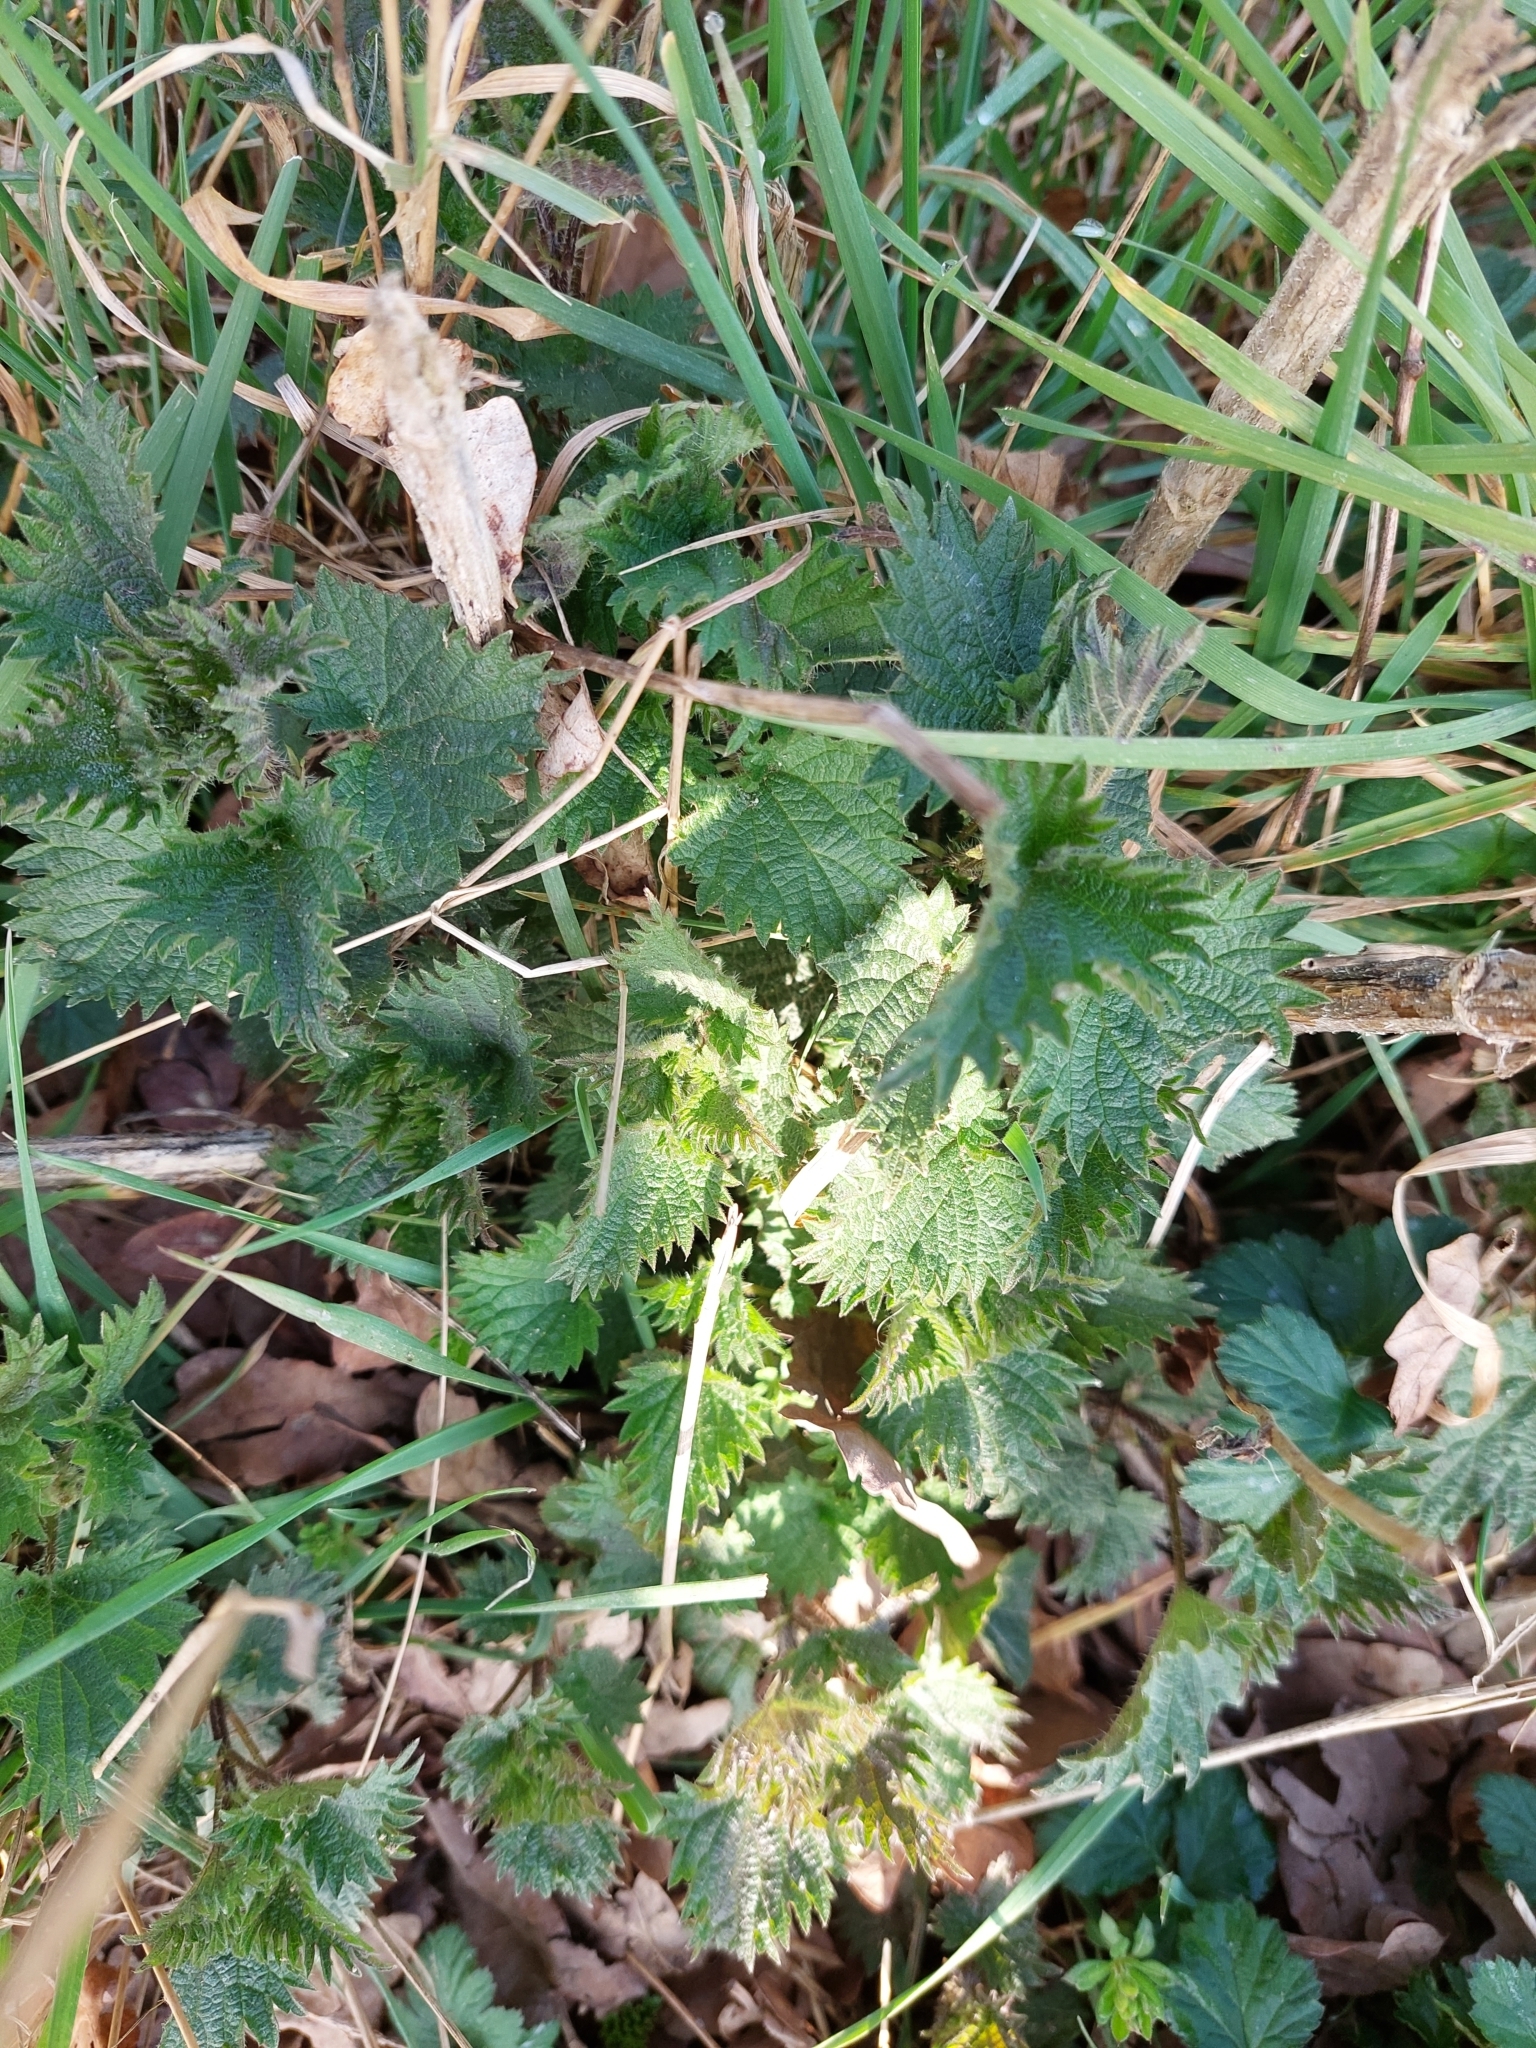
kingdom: Plantae
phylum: Tracheophyta
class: Magnoliopsida
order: Rosales
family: Urticaceae
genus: Urtica
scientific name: Urtica dioica
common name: Common nettle
